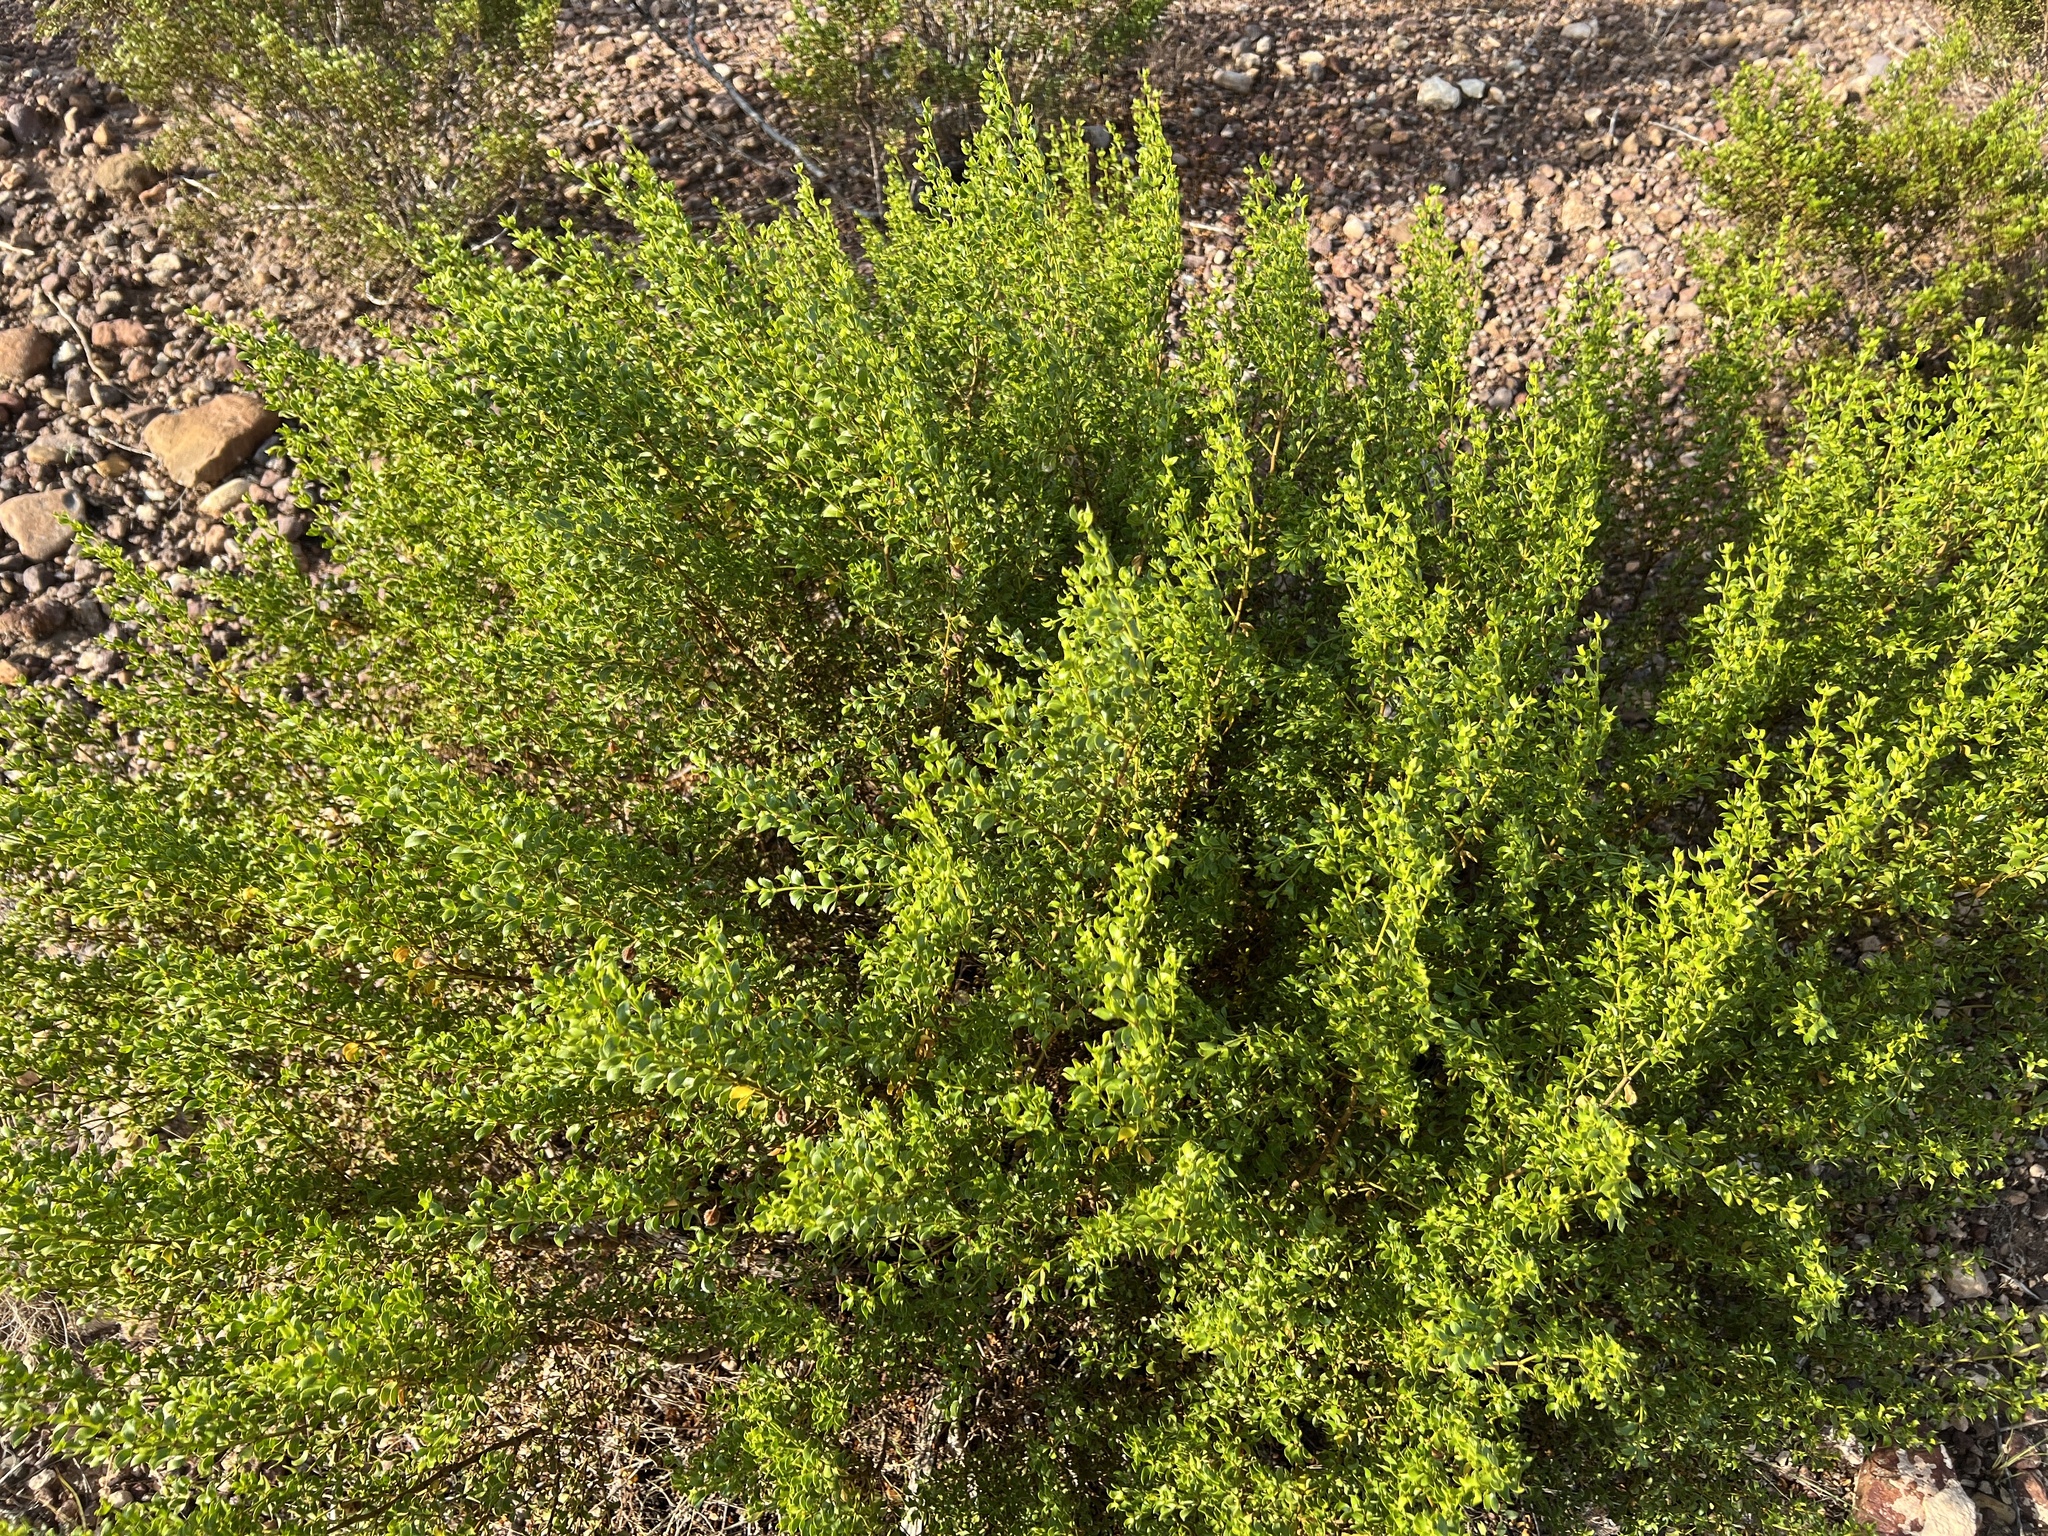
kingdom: Plantae
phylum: Tracheophyta
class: Magnoliopsida
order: Zygophyllales
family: Zygophyllaceae
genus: Larrea
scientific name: Larrea tridentata
